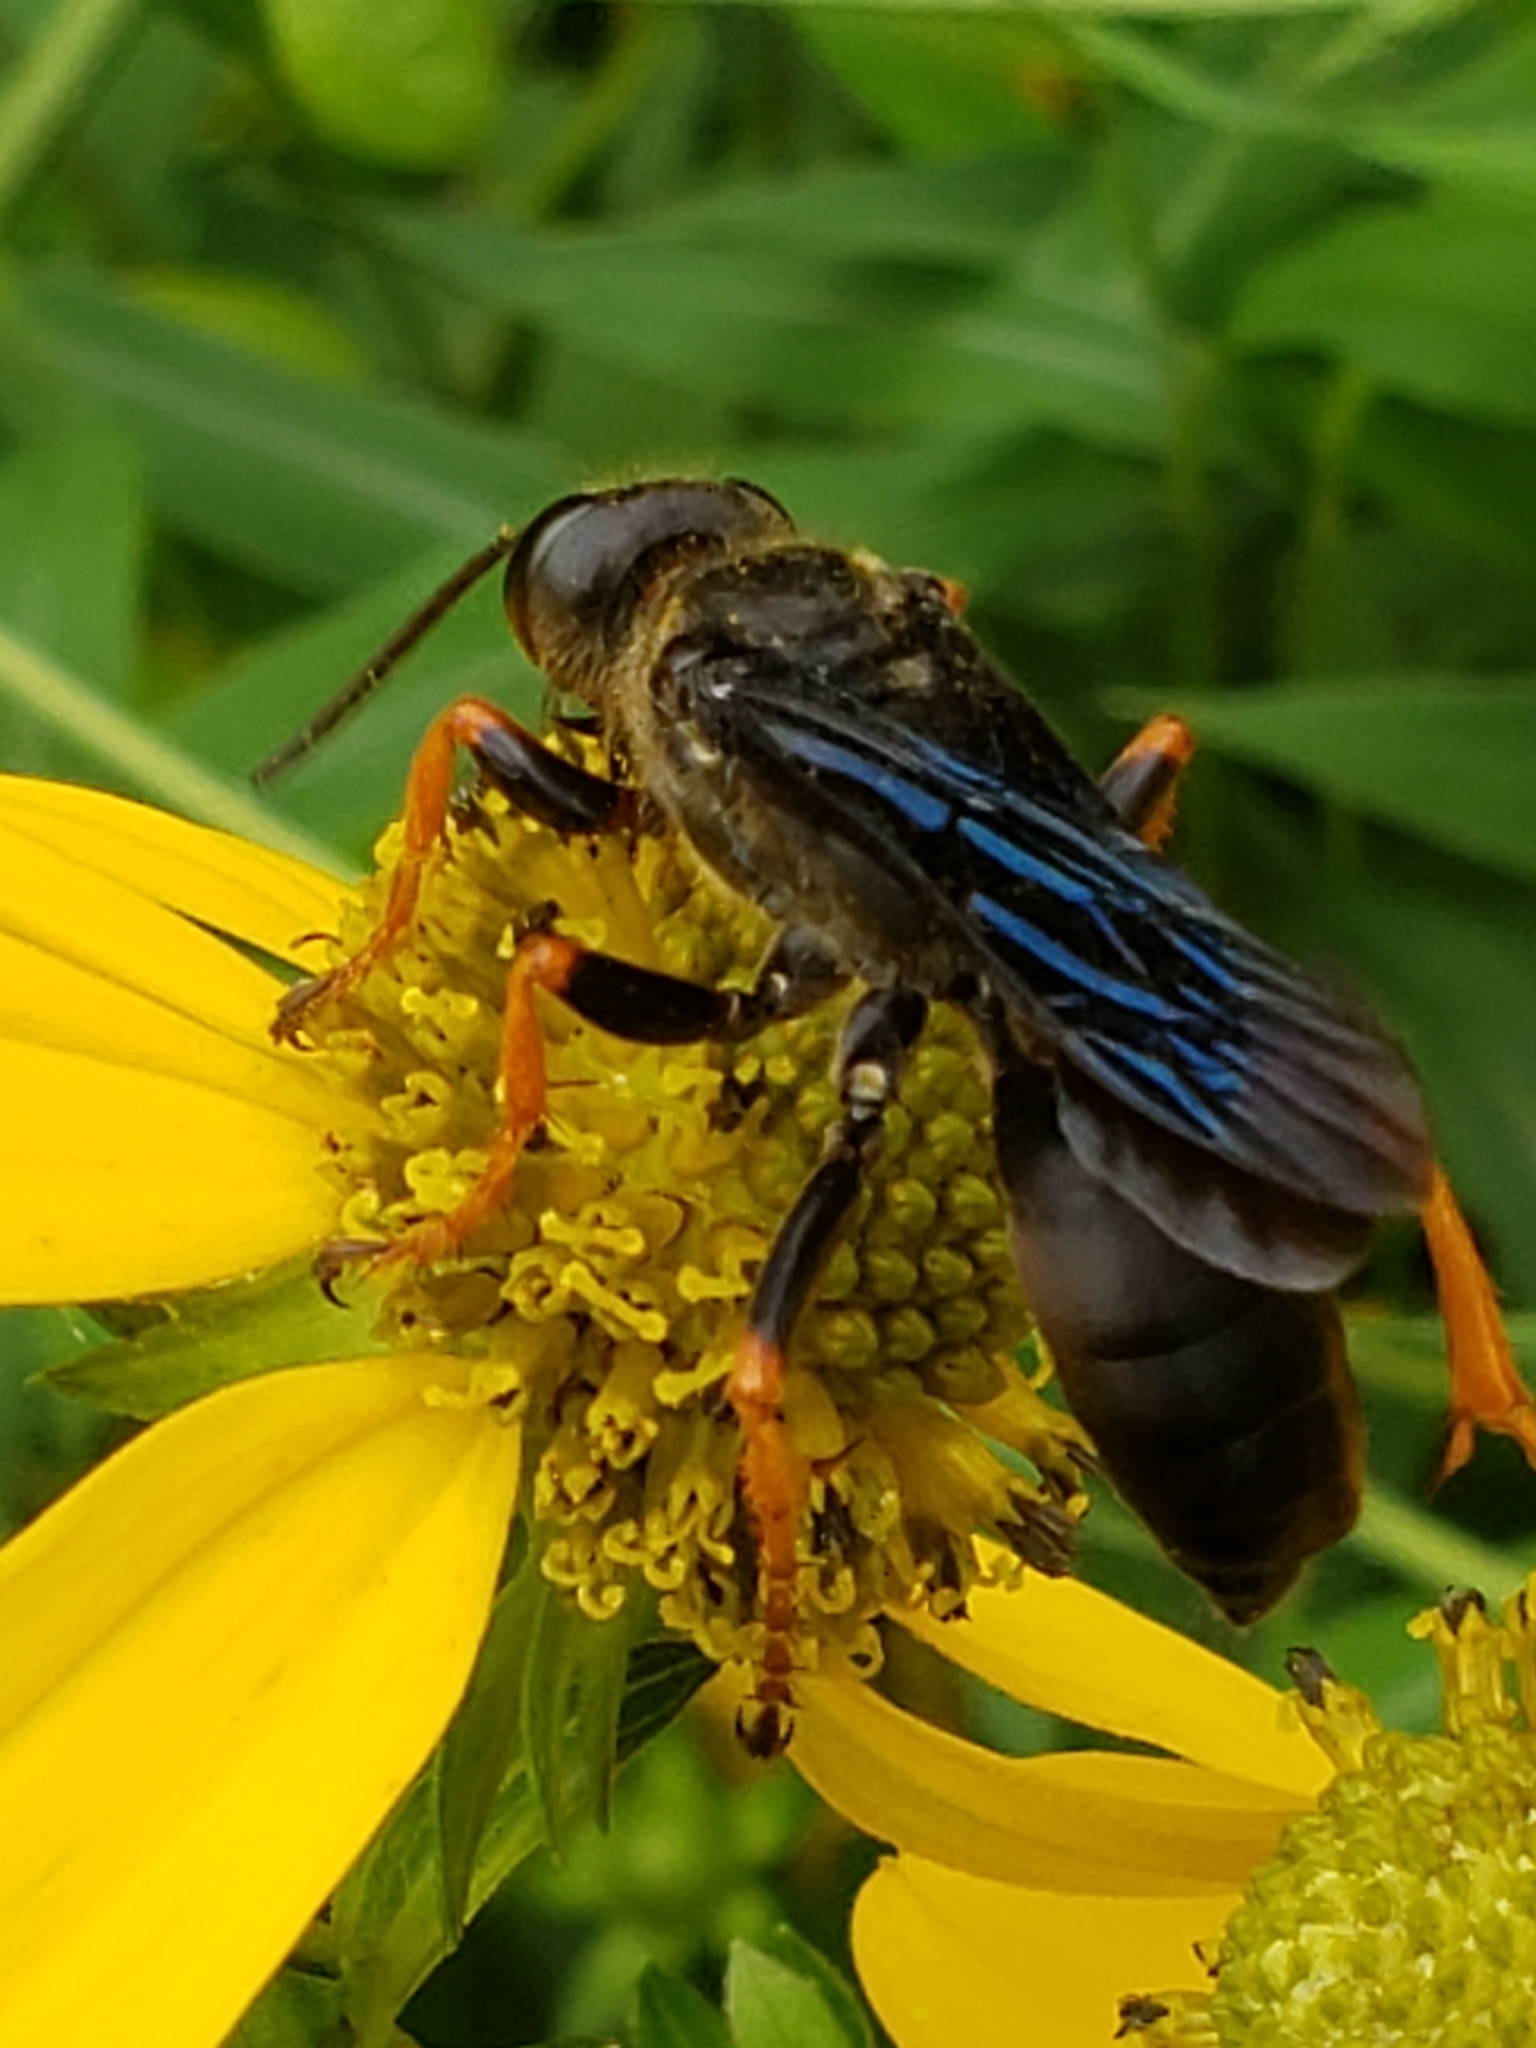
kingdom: Animalia
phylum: Arthropoda
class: Insecta
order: Hymenoptera
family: Sphecidae
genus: Sphex
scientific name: Sphex nudus
